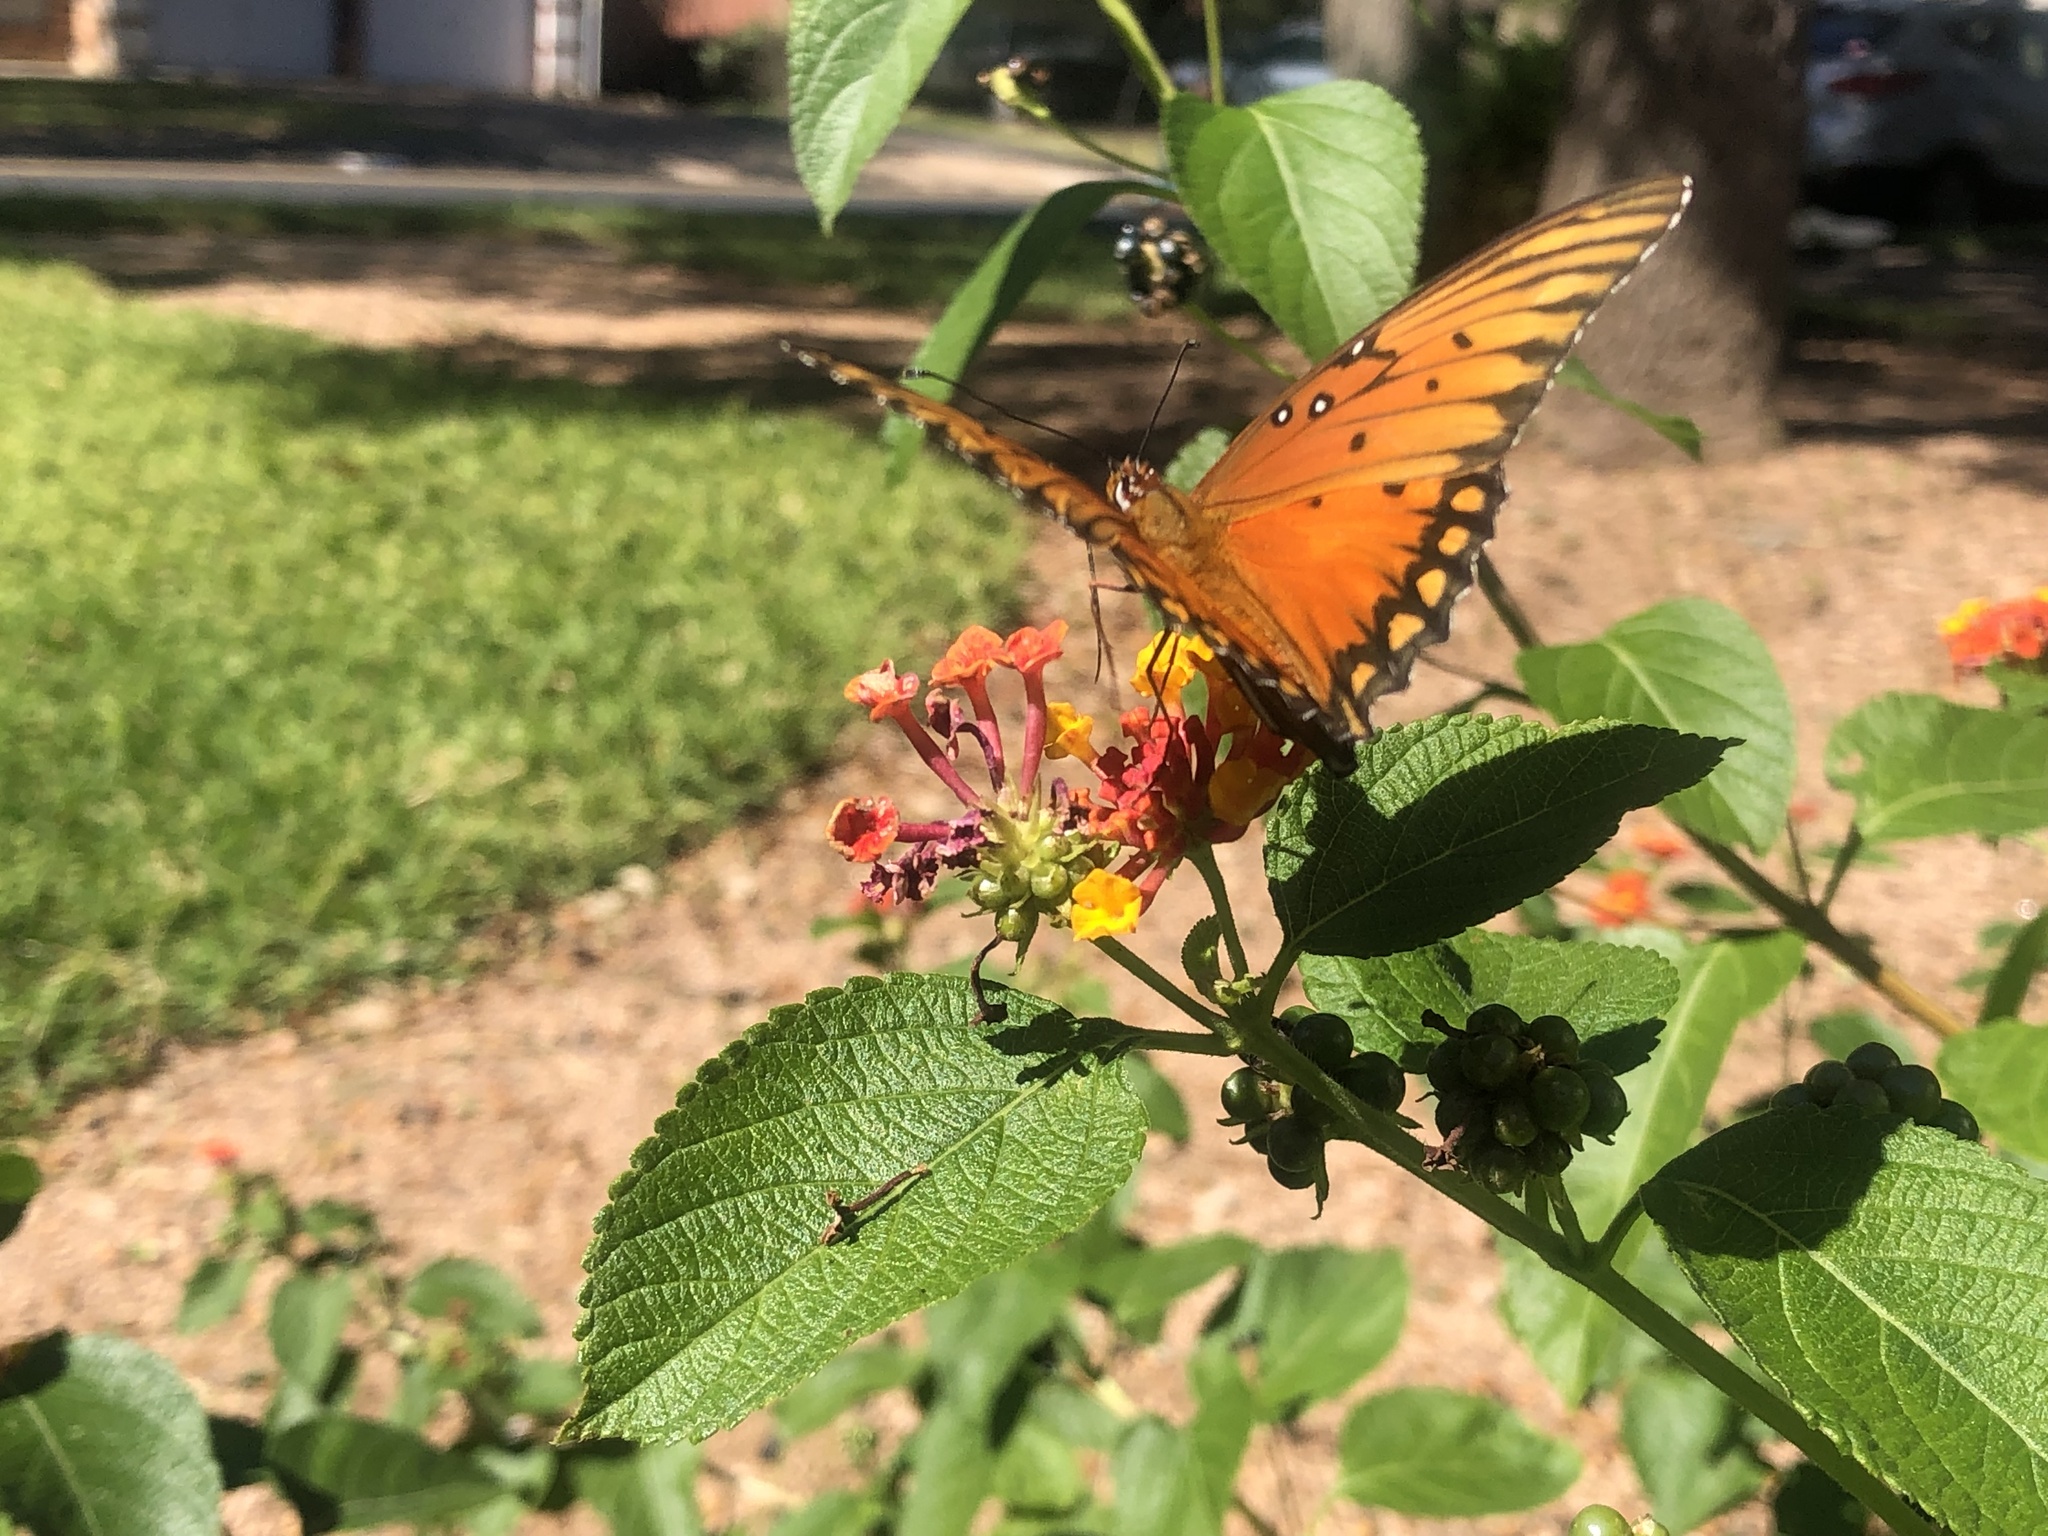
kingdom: Animalia
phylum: Arthropoda
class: Insecta
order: Lepidoptera
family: Nymphalidae
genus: Dione
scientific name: Dione vanillae
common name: Gulf fritillary
